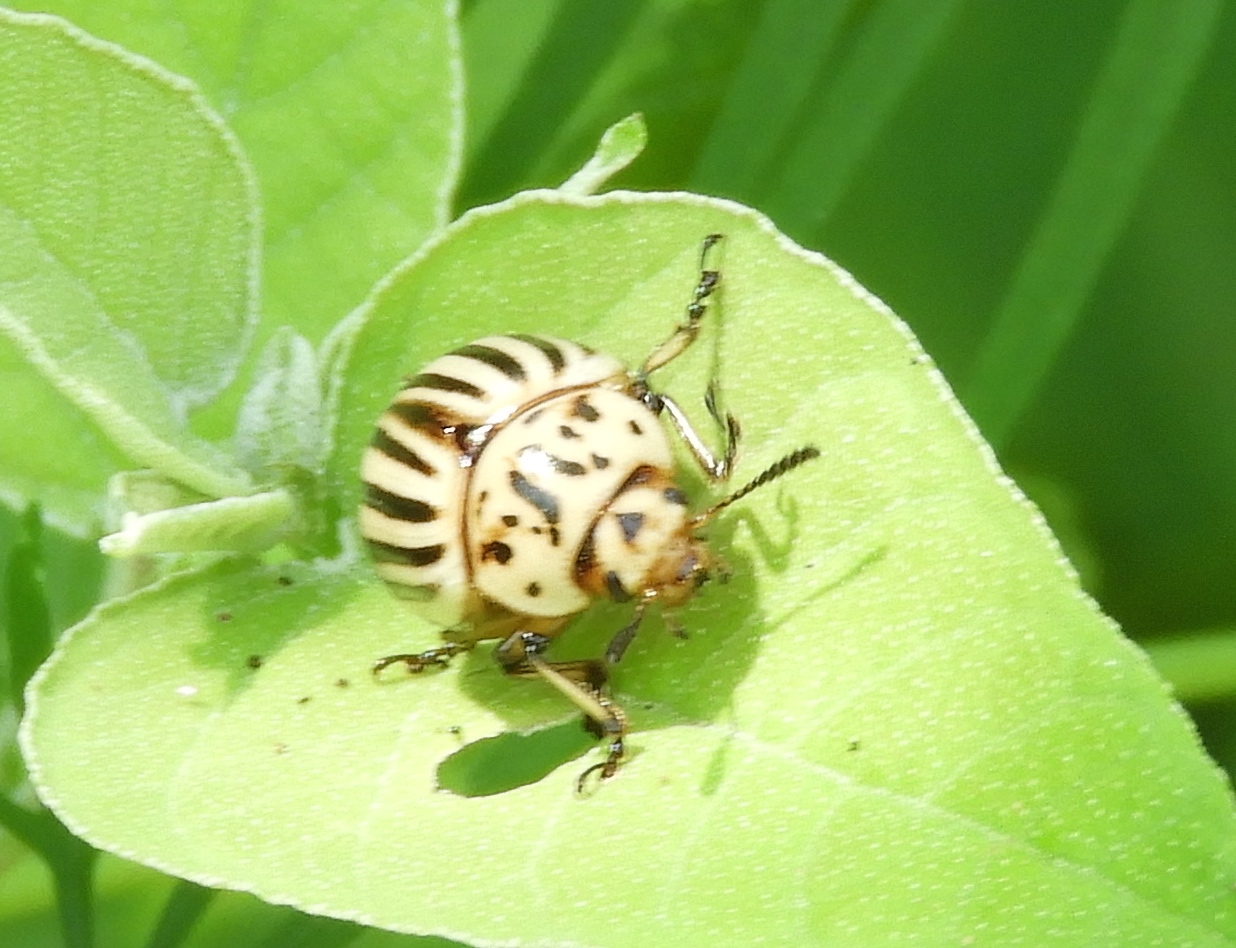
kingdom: Animalia
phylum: Arthropoda
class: Insecta
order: Coleoptera
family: Chrysomelidae
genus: Leptinotarsa
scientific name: Leptinotarsa decemlineata
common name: Colorado potato beetle
